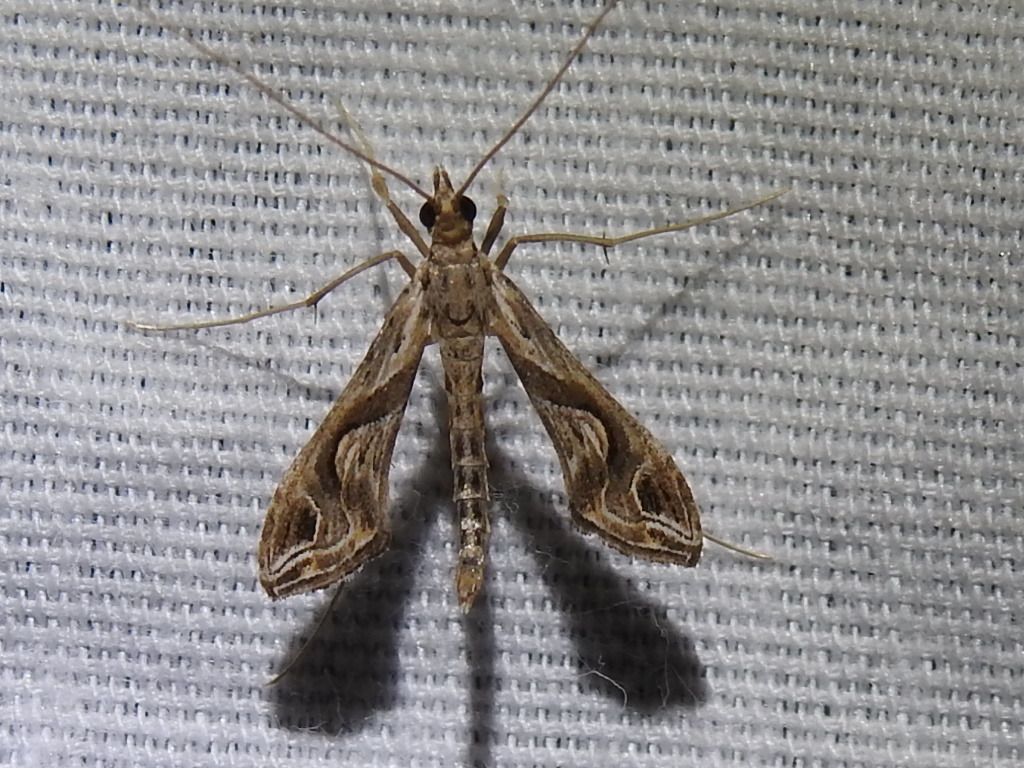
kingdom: Animalia
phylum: Arthropoda
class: Insecta
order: Lepidoptera
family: Crambidae
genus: Lineodes
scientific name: Lineodes integra
